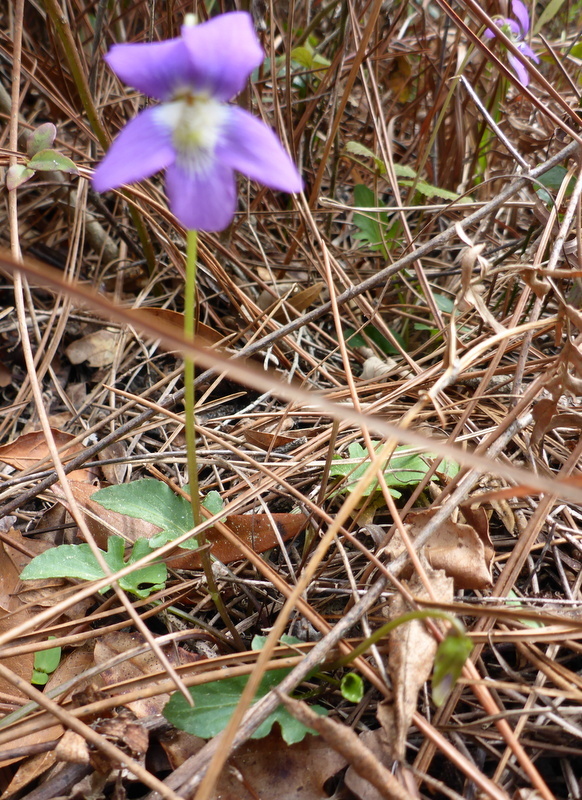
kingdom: Plantae
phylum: Tracheophyta
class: Magnoliopsida
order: Malpighiales
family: Violaceae
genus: Viola
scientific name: Viola sagittata
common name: Arrowhead violet
